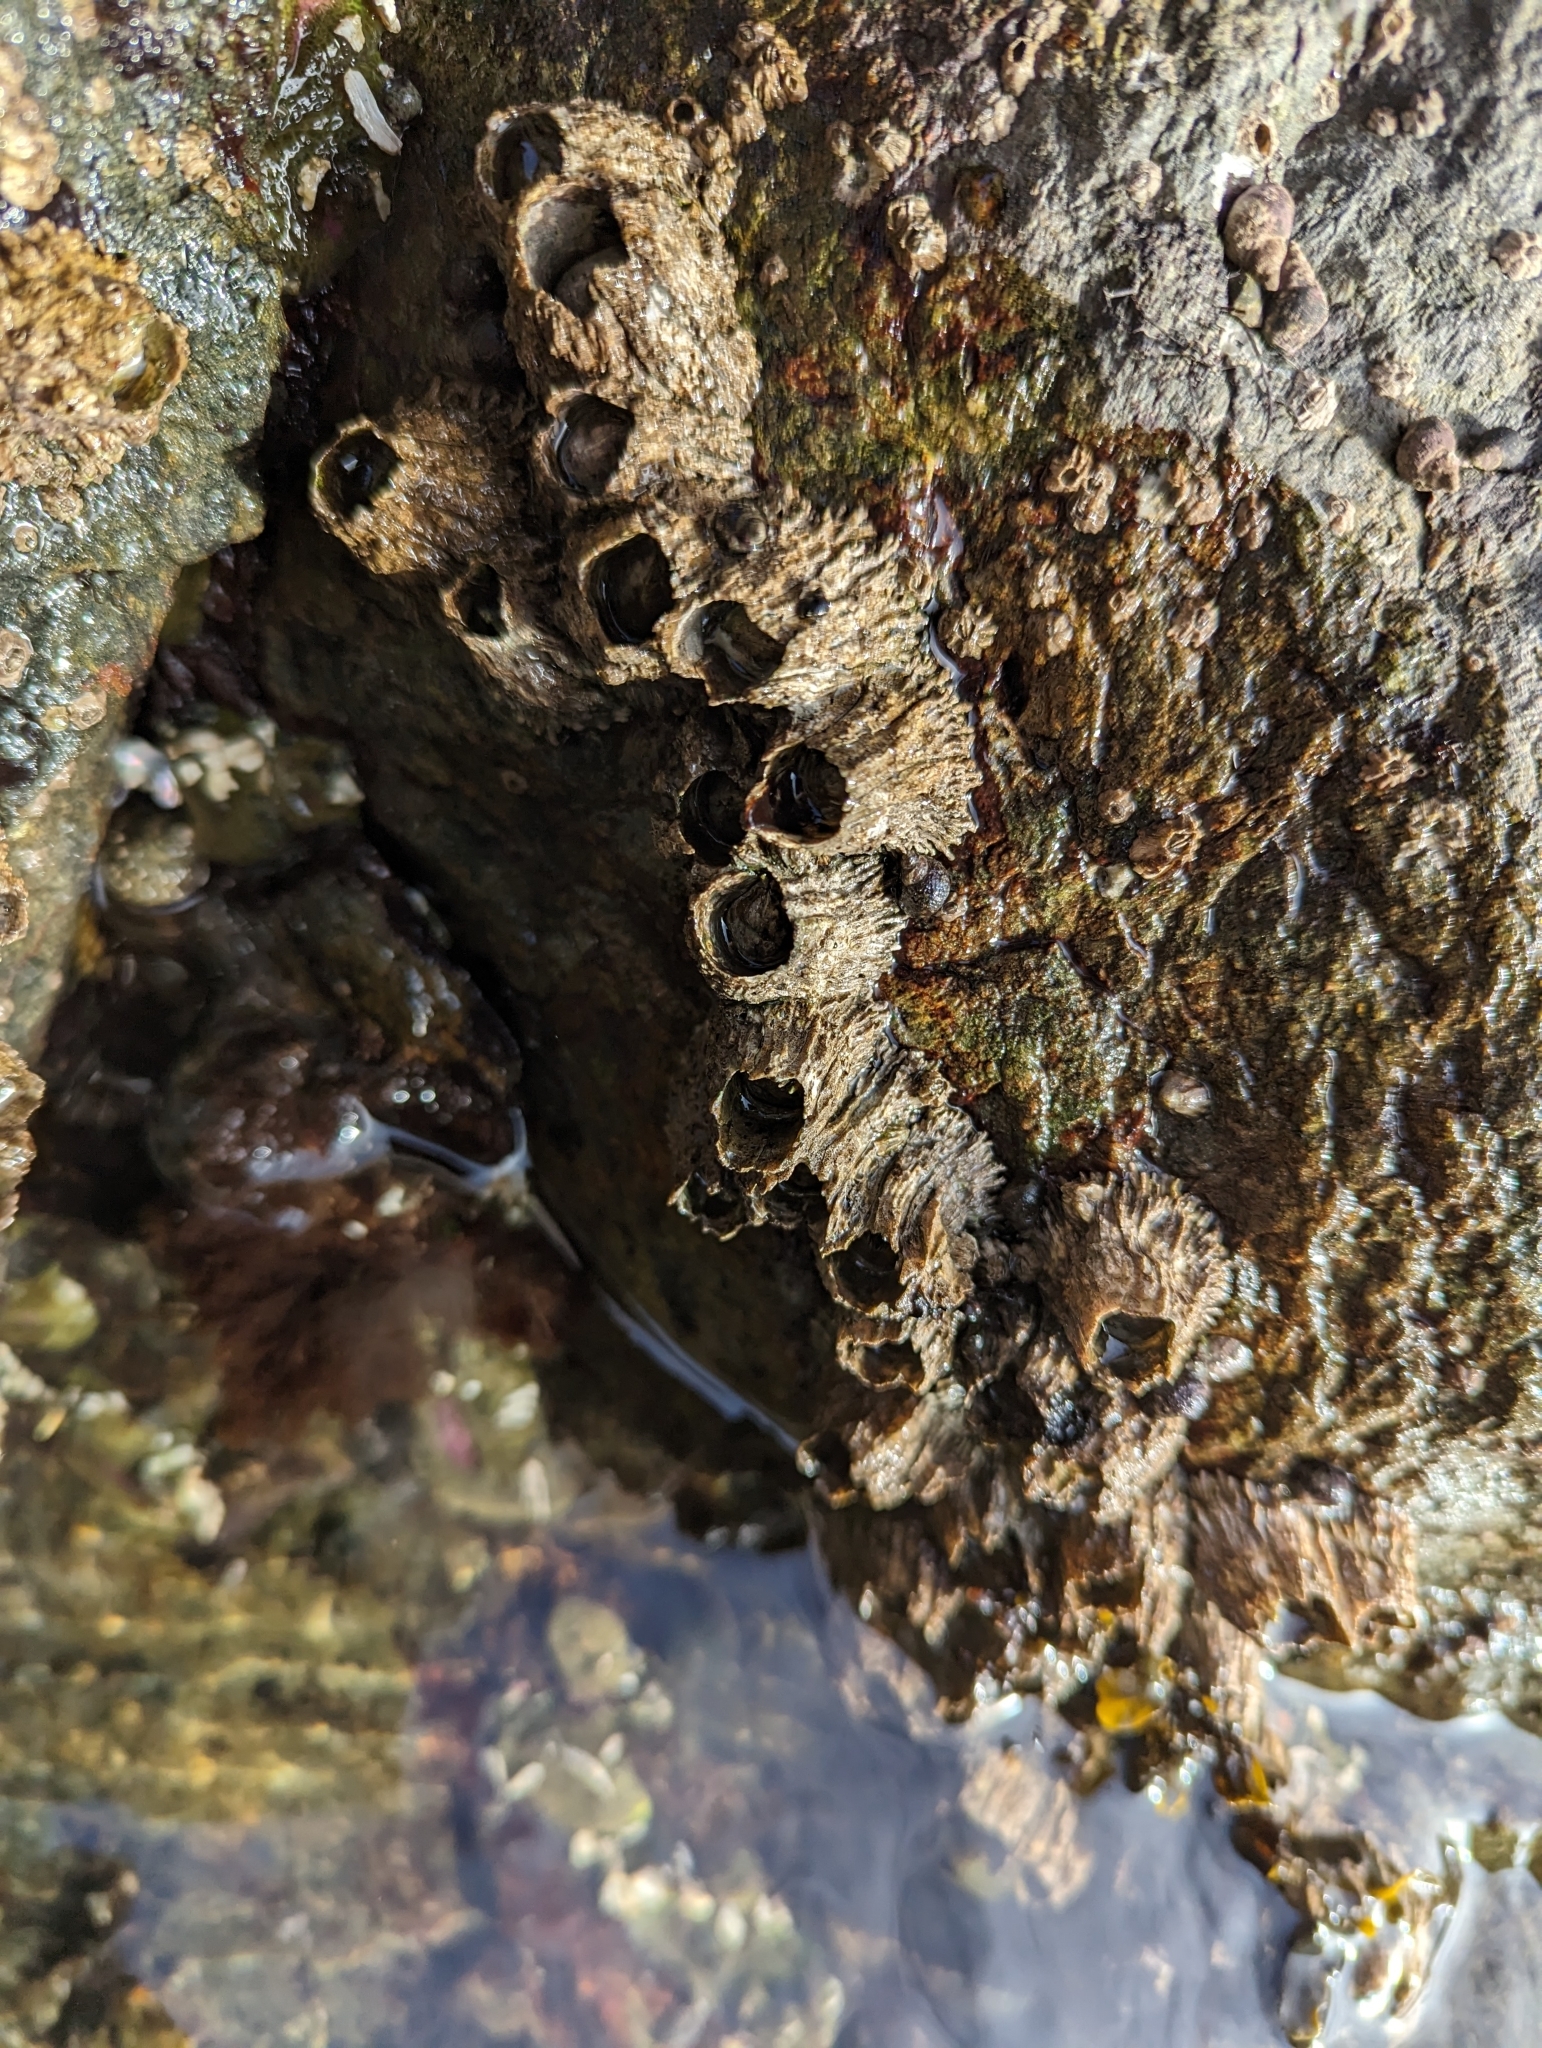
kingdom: Animalia
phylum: Arthropoda
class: Maxillopoda
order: Sessilia
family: Archaeobalanidae
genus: Semibalanus
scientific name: Semibalanus cariosus
